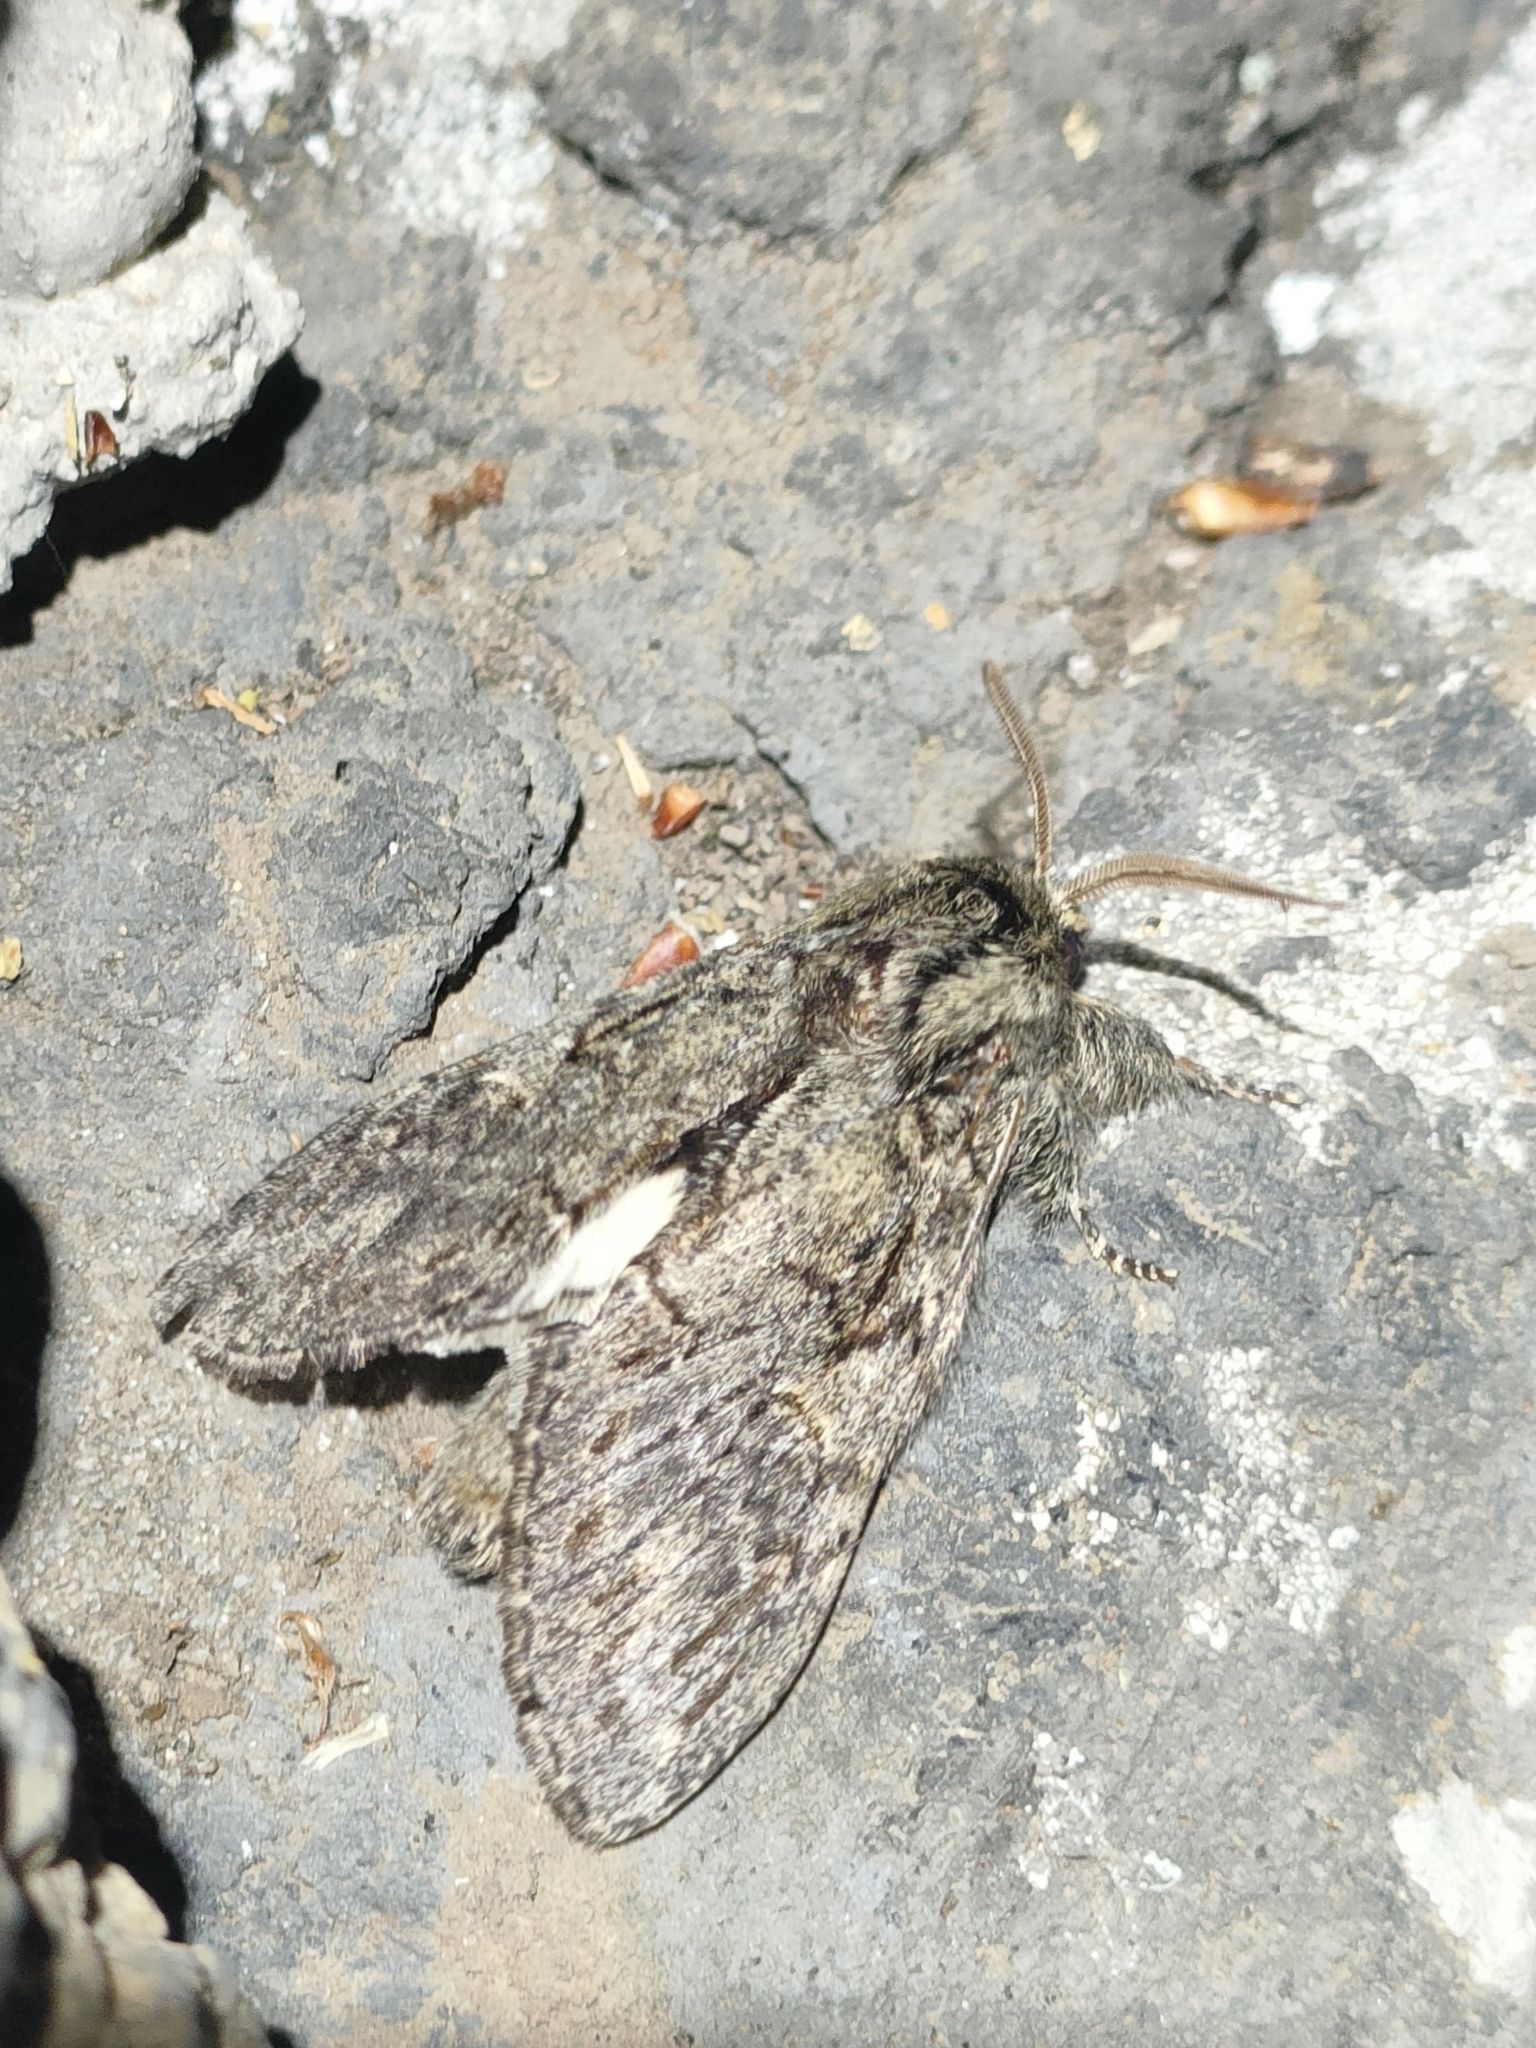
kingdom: Animalia
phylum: Arthropoda
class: Insecta
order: Lepidoptera
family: Notodontidae
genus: Peridea
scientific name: Peridea anceps
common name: Great prominent
